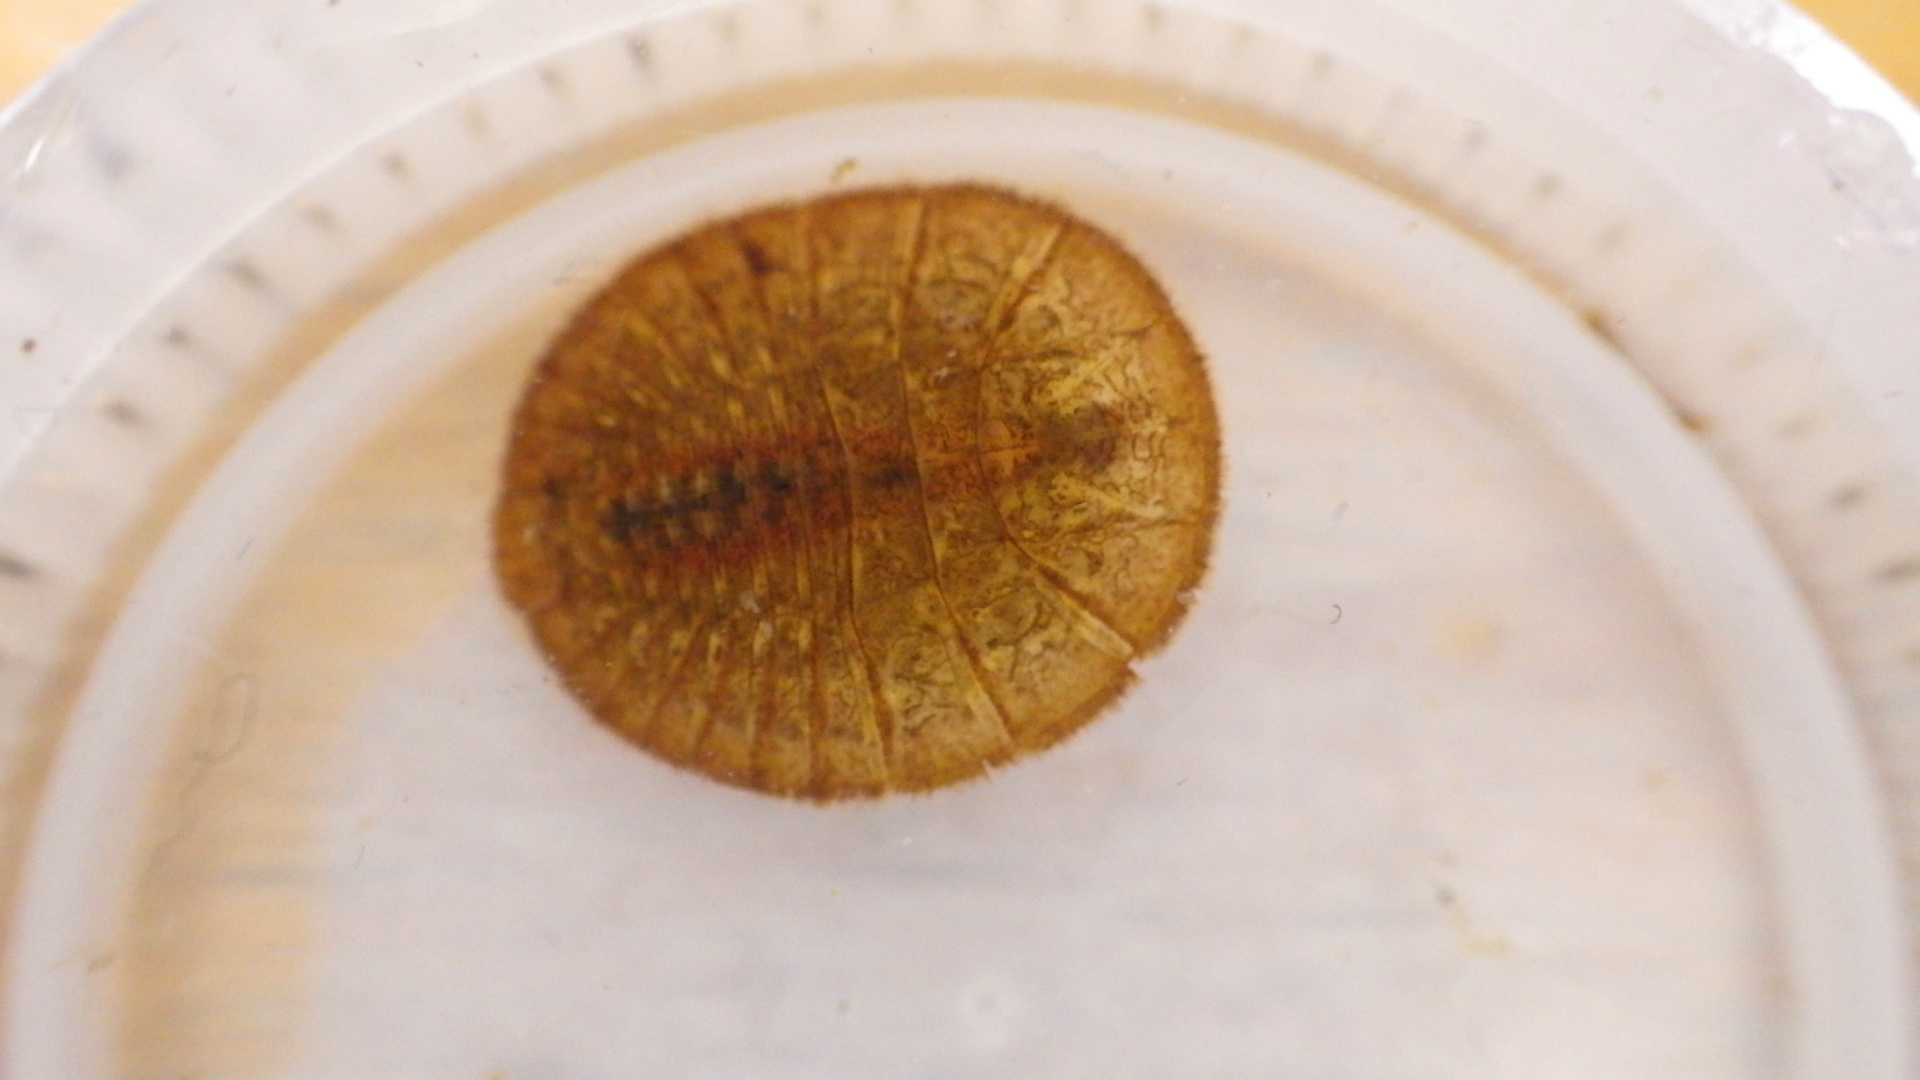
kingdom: Animalia
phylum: Arthropoda
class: Insecta
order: Coleoptera
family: Psephenidae
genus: Psephenus
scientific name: Psephenus herricki
